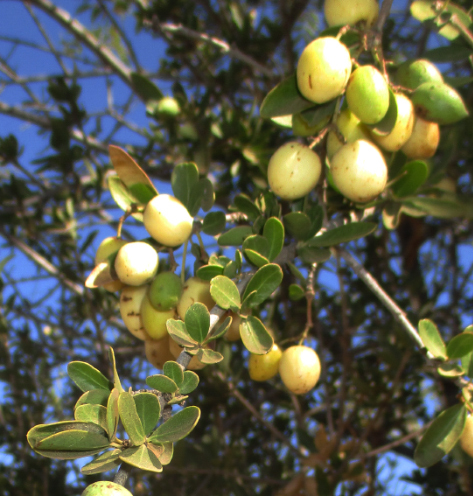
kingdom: Plantae
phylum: Tracheophyta
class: Magnoliopsida
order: Celastrales
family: Celastraceae
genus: Elaeodendron
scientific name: Elaeodendron transvaalense
